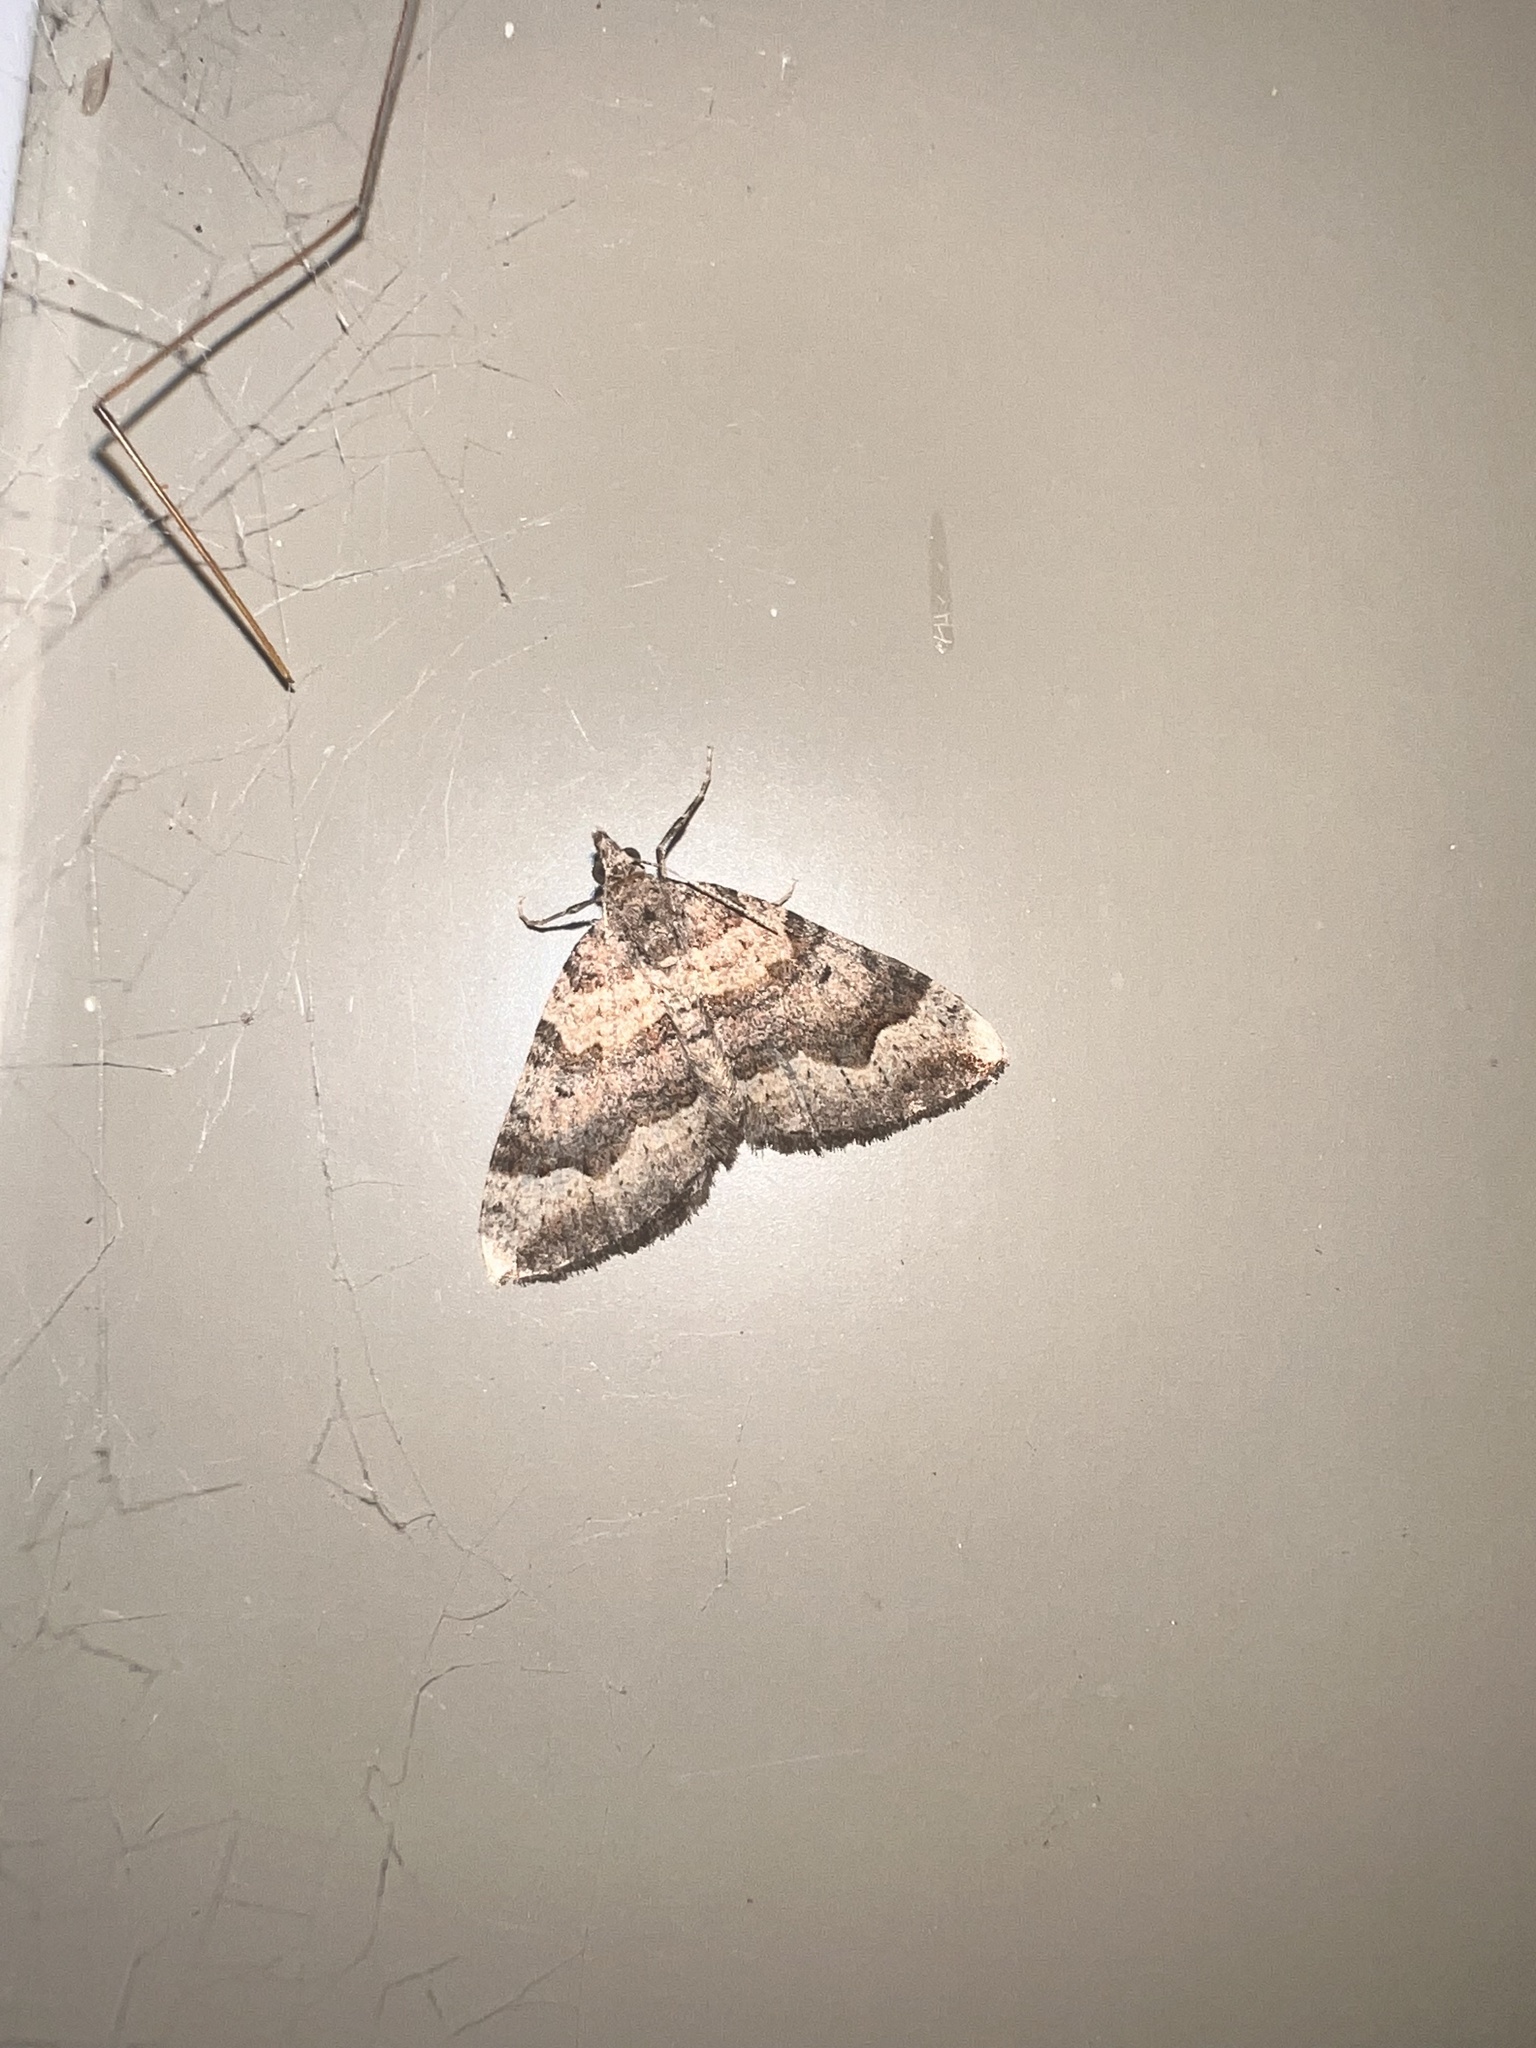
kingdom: Animalia
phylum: Arthropoda
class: Insecta
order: Lepidoptera
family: Geometridae
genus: Epyaxa
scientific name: Epyaxa rosearia
